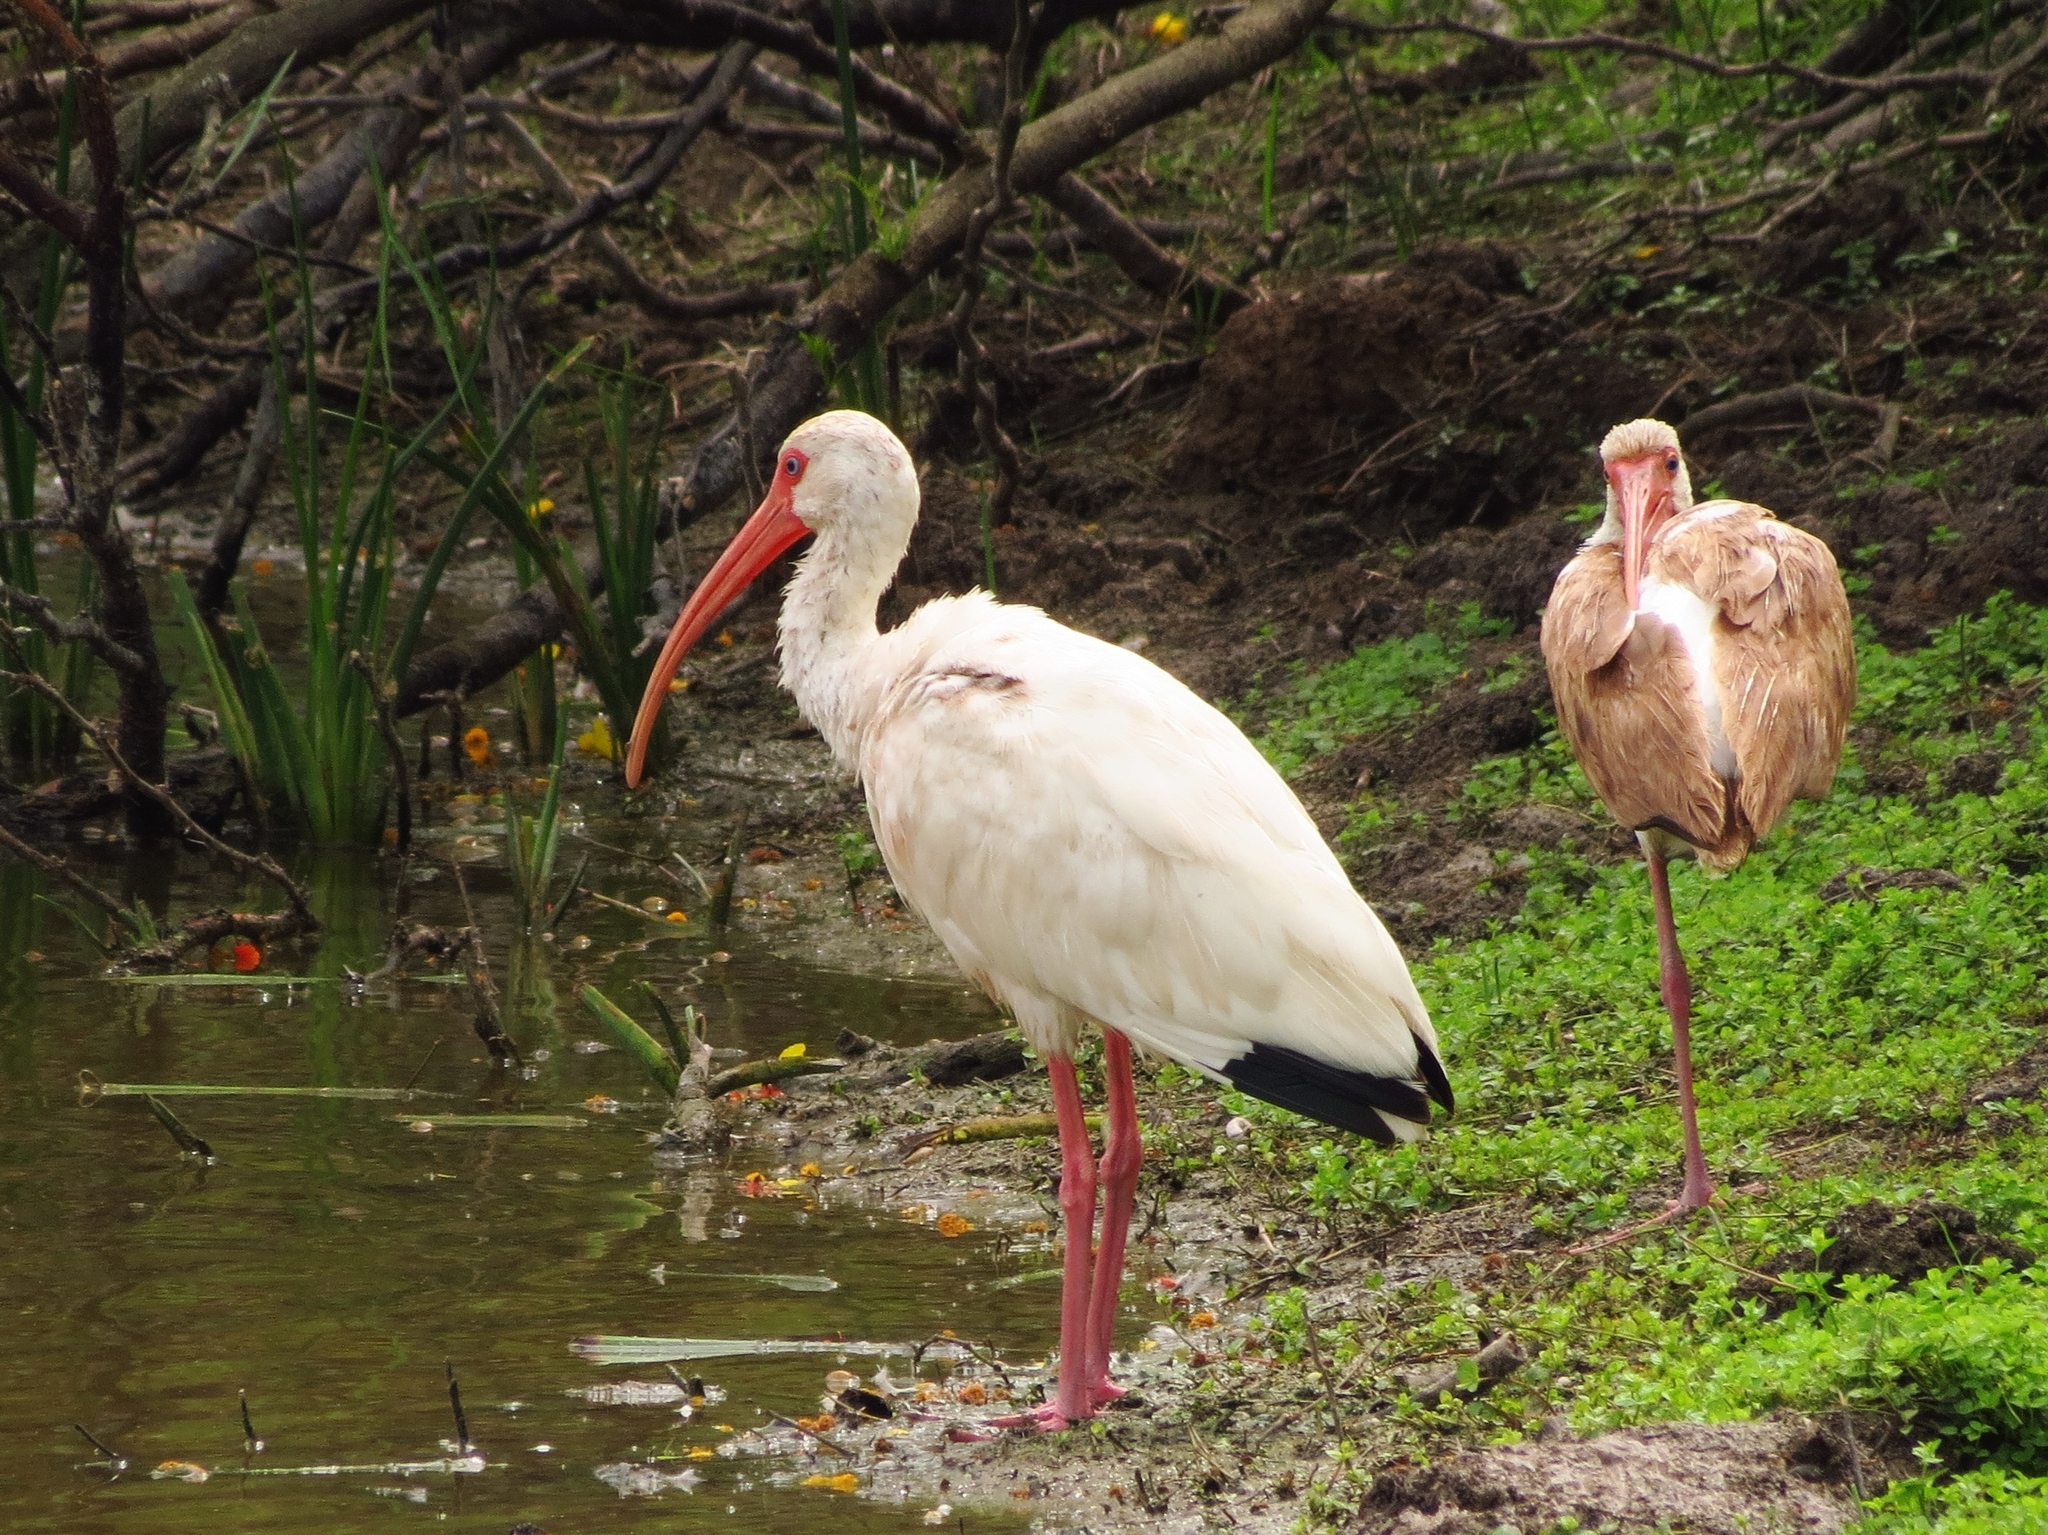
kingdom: Animalia
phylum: Chordata
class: Aves
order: Pelecaniformes
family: Threskiornithidae
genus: Eudocimus
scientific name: Eudocimus albus
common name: White ibis
